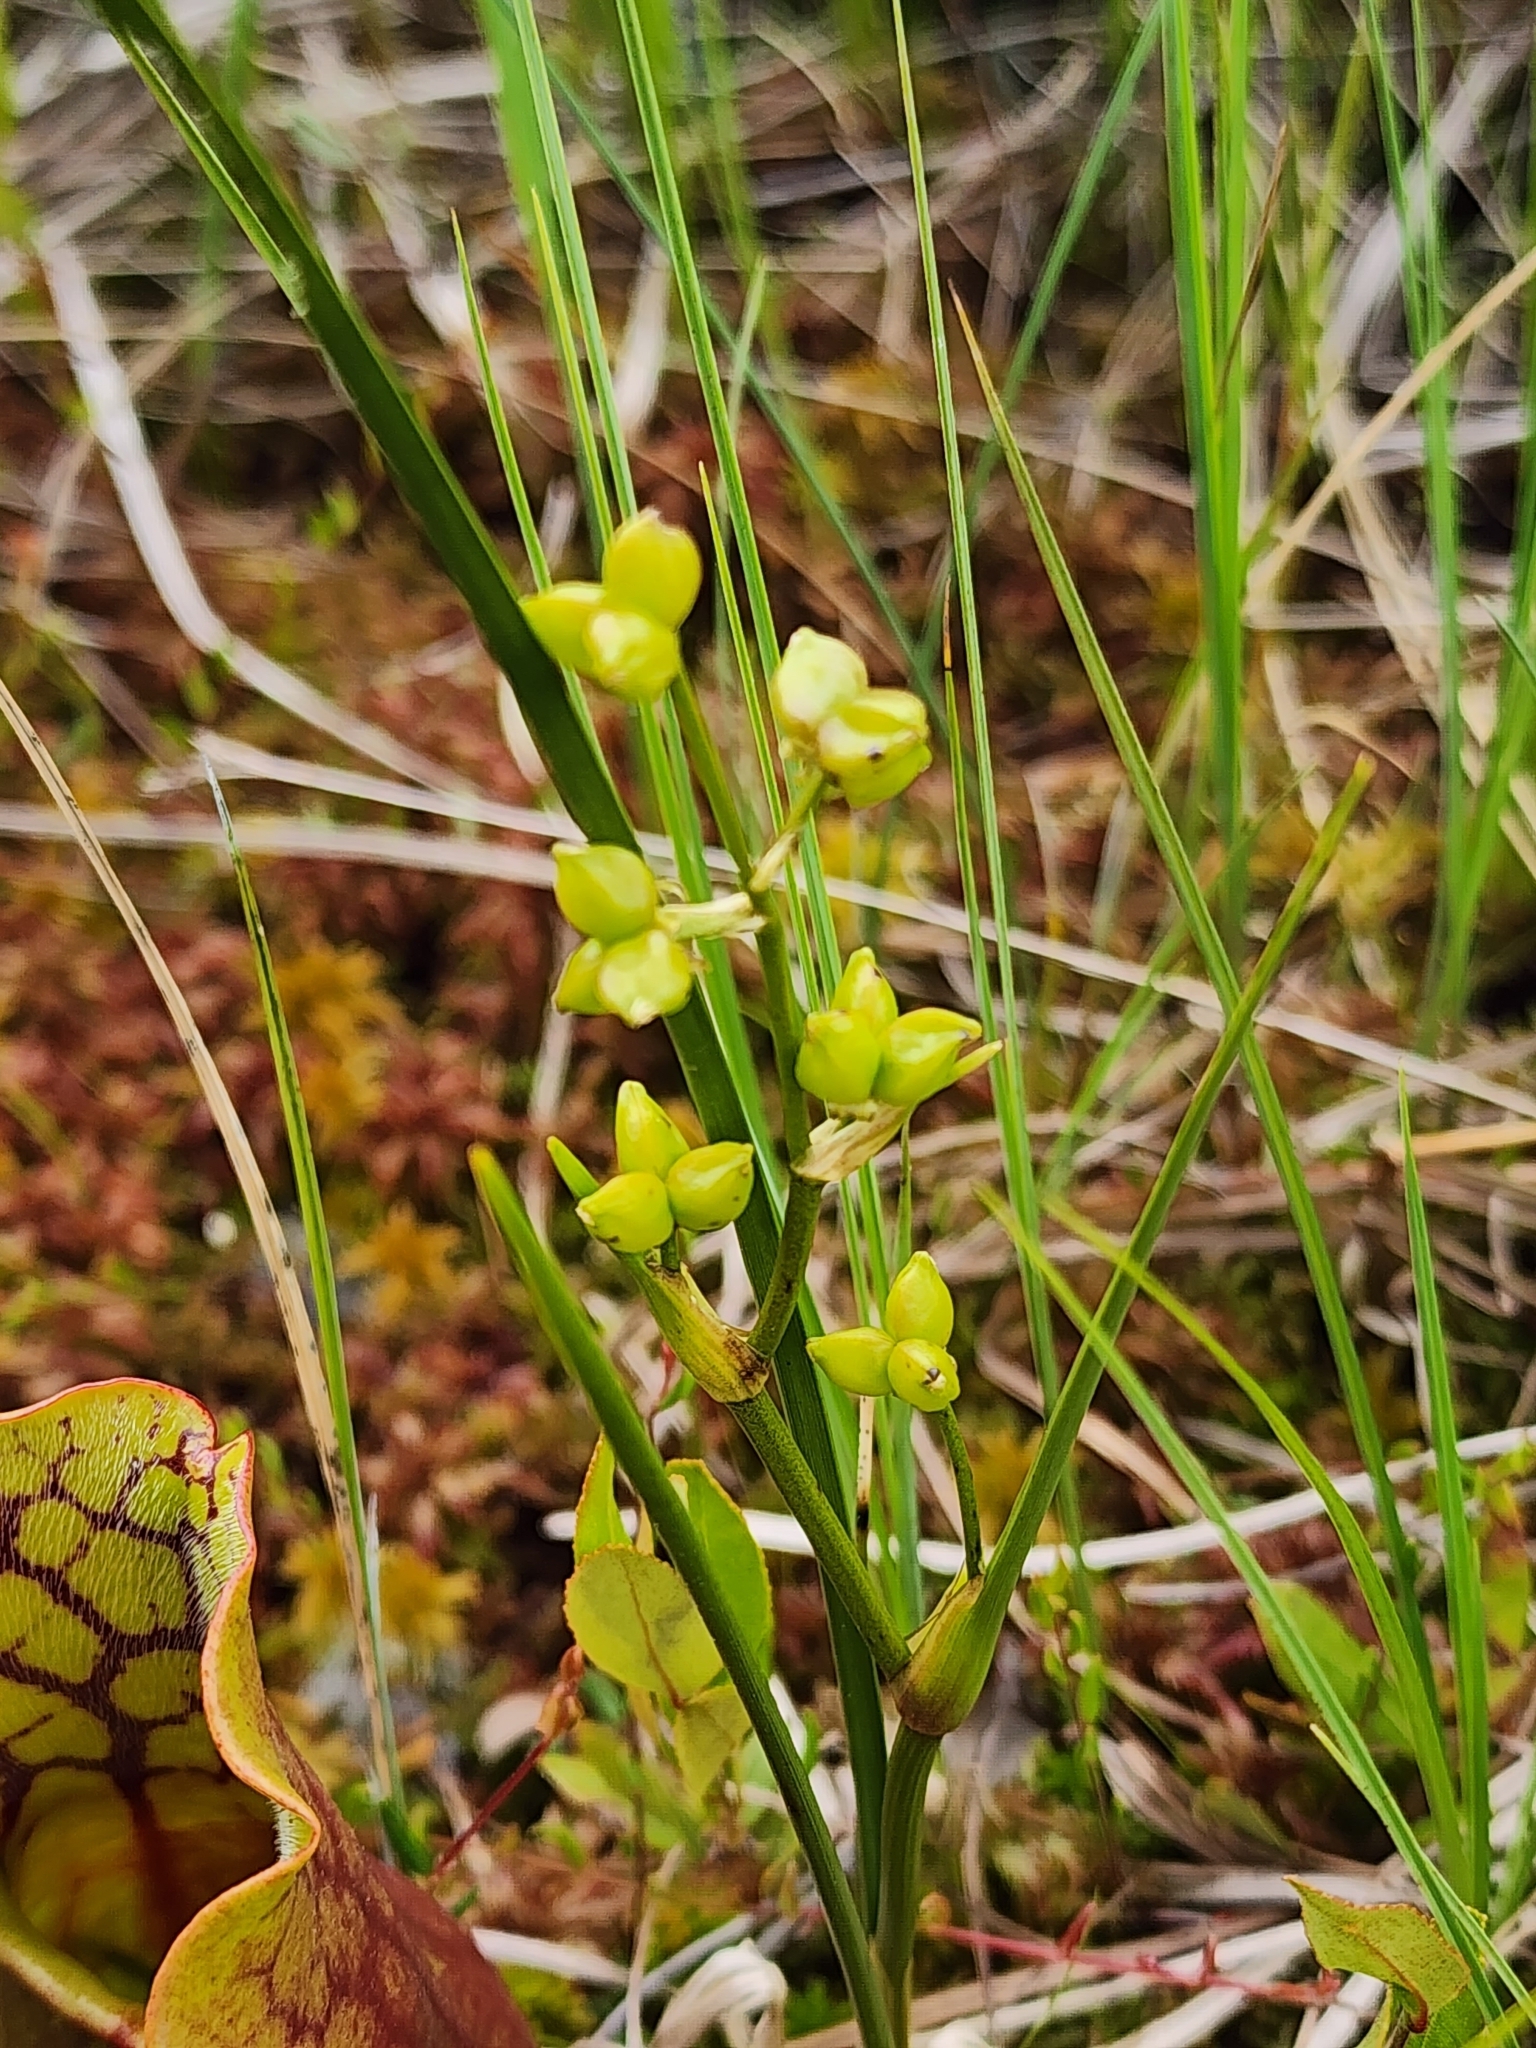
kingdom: Plantae
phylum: Tracheophyta
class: Liliopsida
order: Alismatales
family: Scheuchzeriaceae
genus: Scheuchzeria
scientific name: Scheuchzeria palustris
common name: Rannoch-rush
